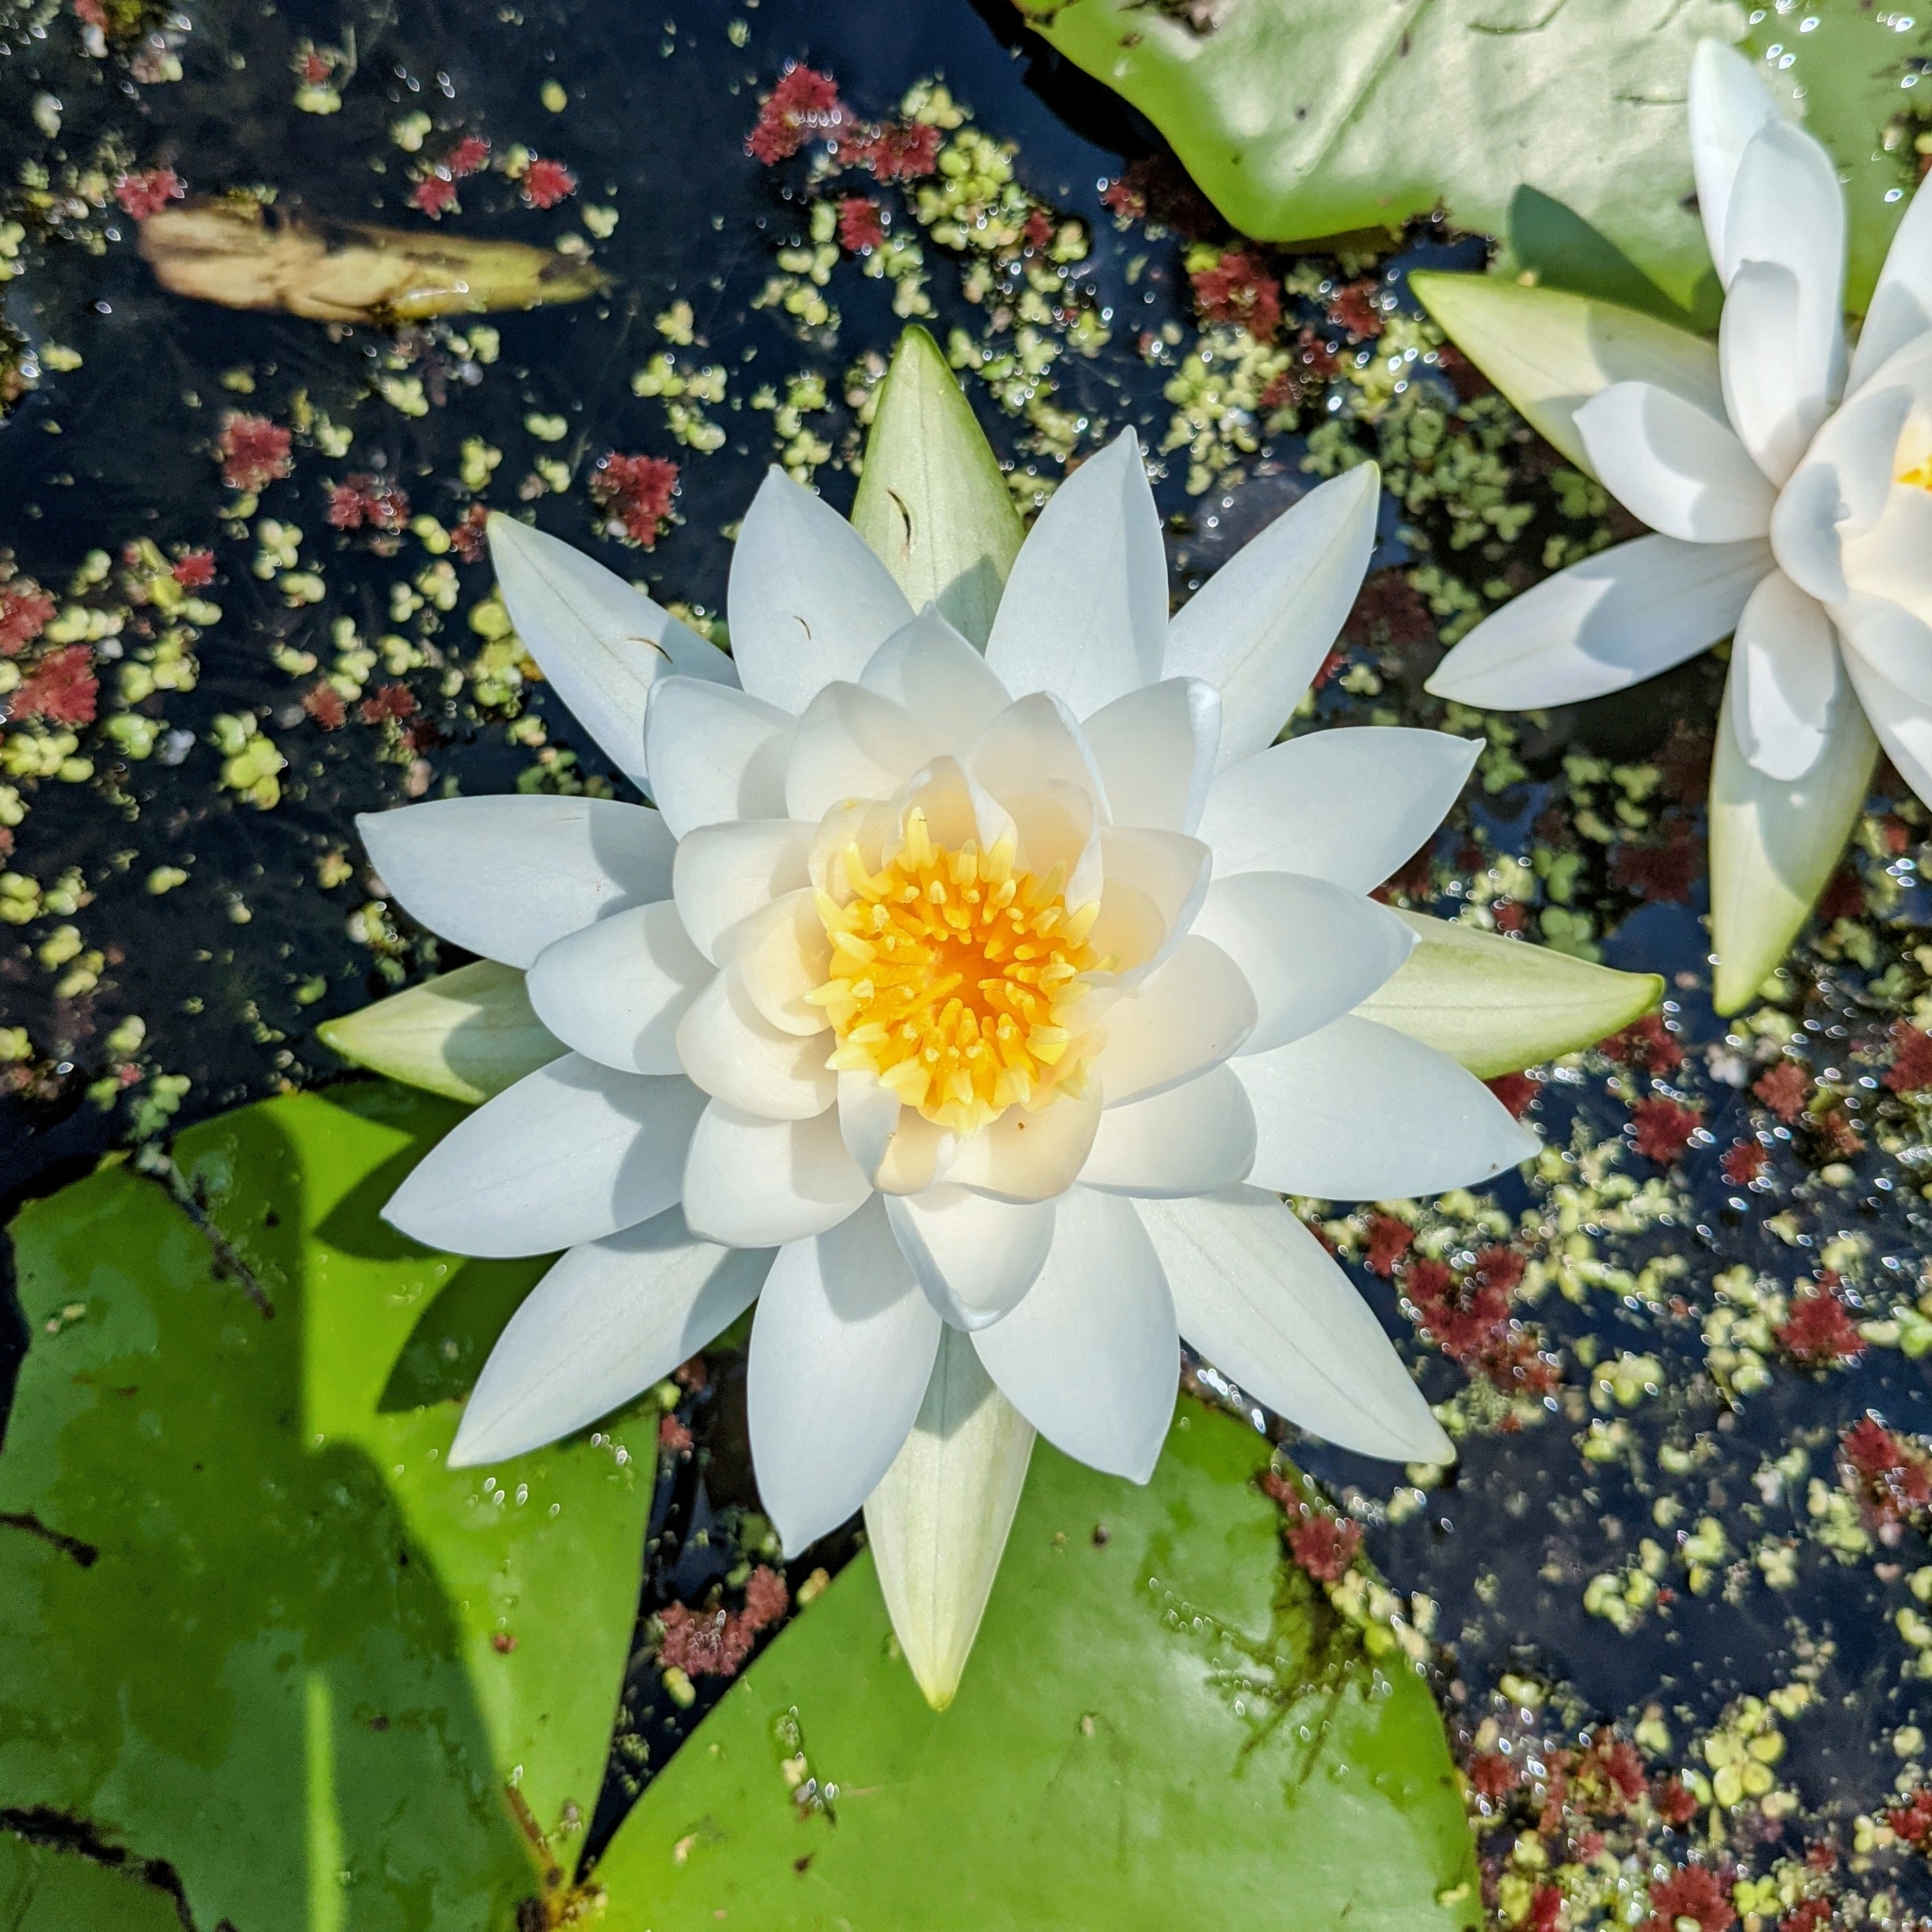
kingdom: Plantae
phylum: Tracheophyta
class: Magnoliopsida
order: Nymphaeales
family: Nymphaeaceae
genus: Nymphaea
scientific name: Nymphaea odorata
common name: Fragrant water-lily
